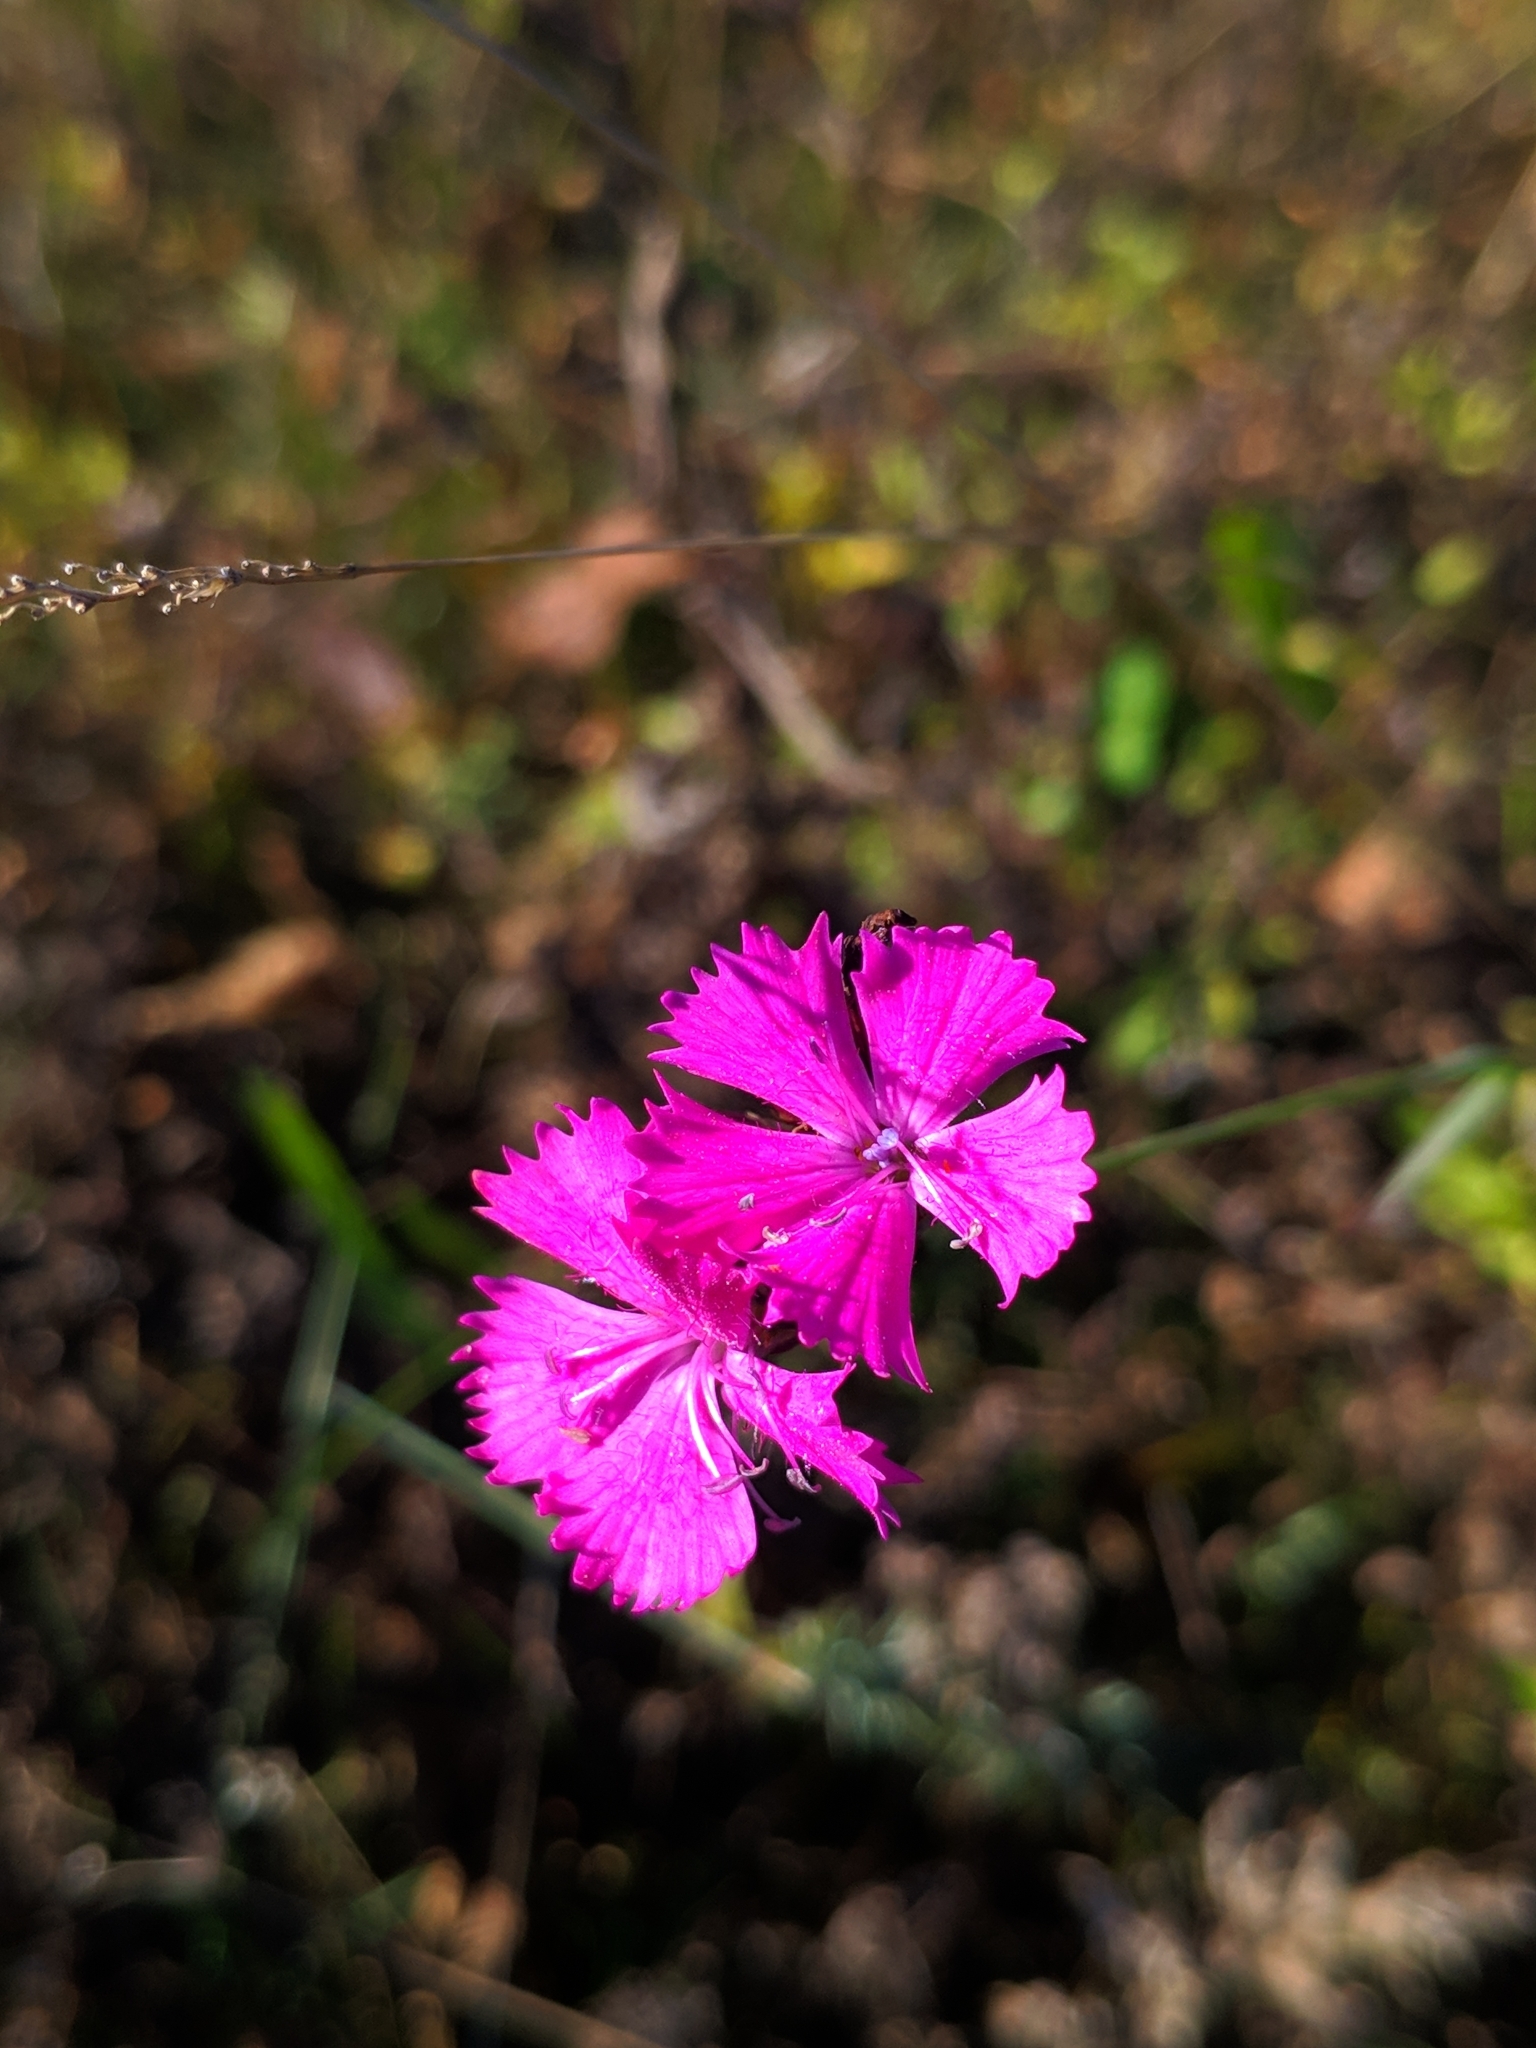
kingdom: Plantae
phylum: Tracheophyta
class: Magnoliopsida
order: Caryophyllales
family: Caryophyllaceae
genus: Dianthus
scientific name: Dianthus carthusianorum
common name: Carthusian pink
